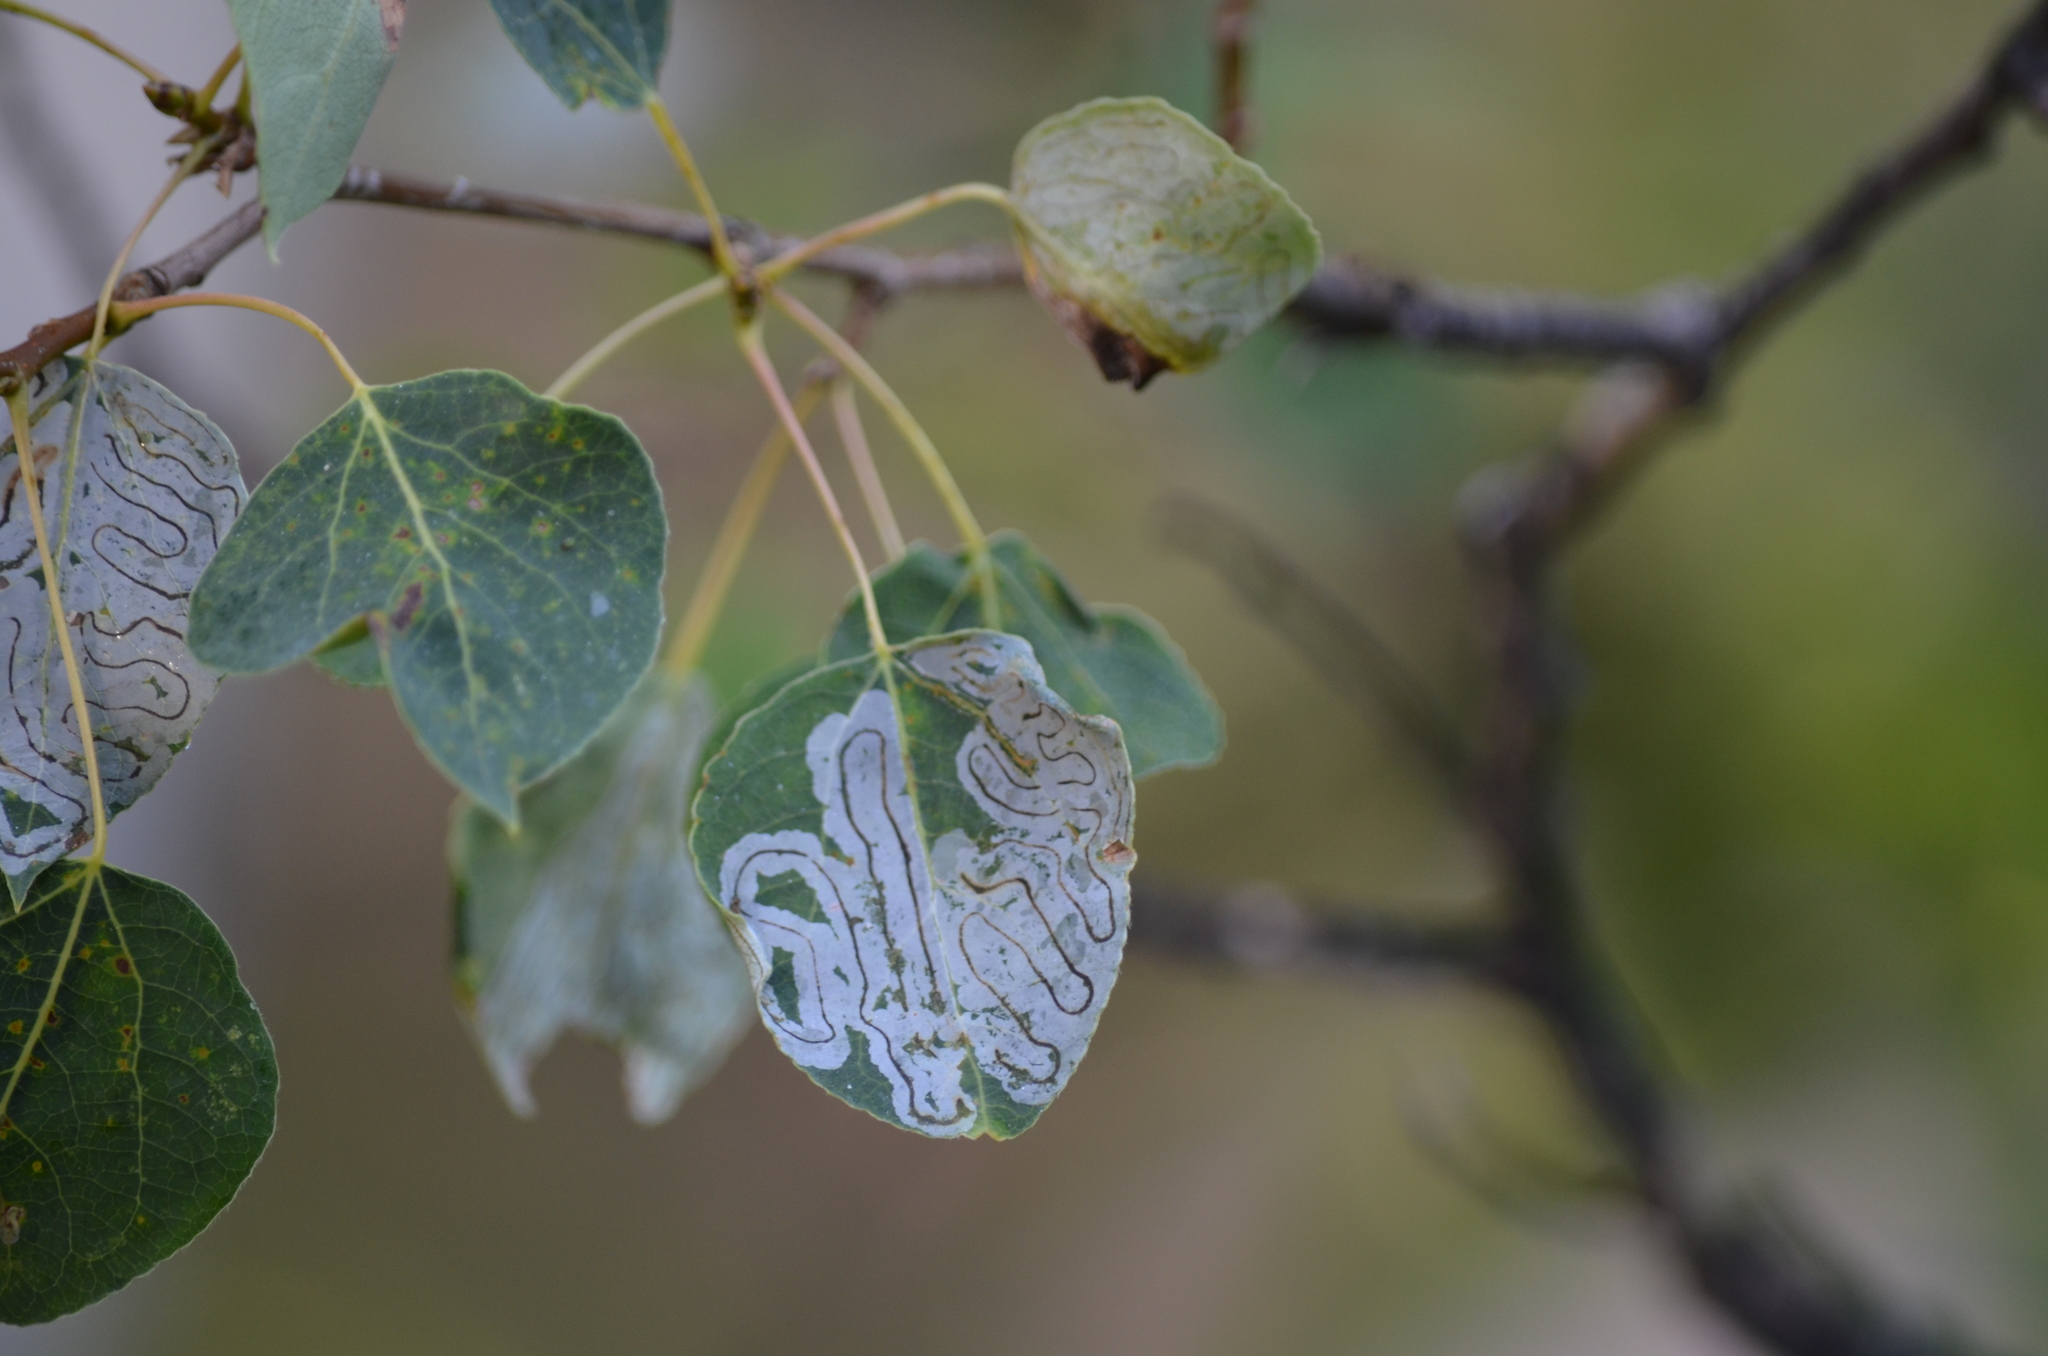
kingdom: Animalia
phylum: Arthropoda
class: Insecta
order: Lepidoptera
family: Gracillariidae
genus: Phyllocnistis
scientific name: Phyllocnistis populiella
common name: Aspen serpentine leafminer moth
